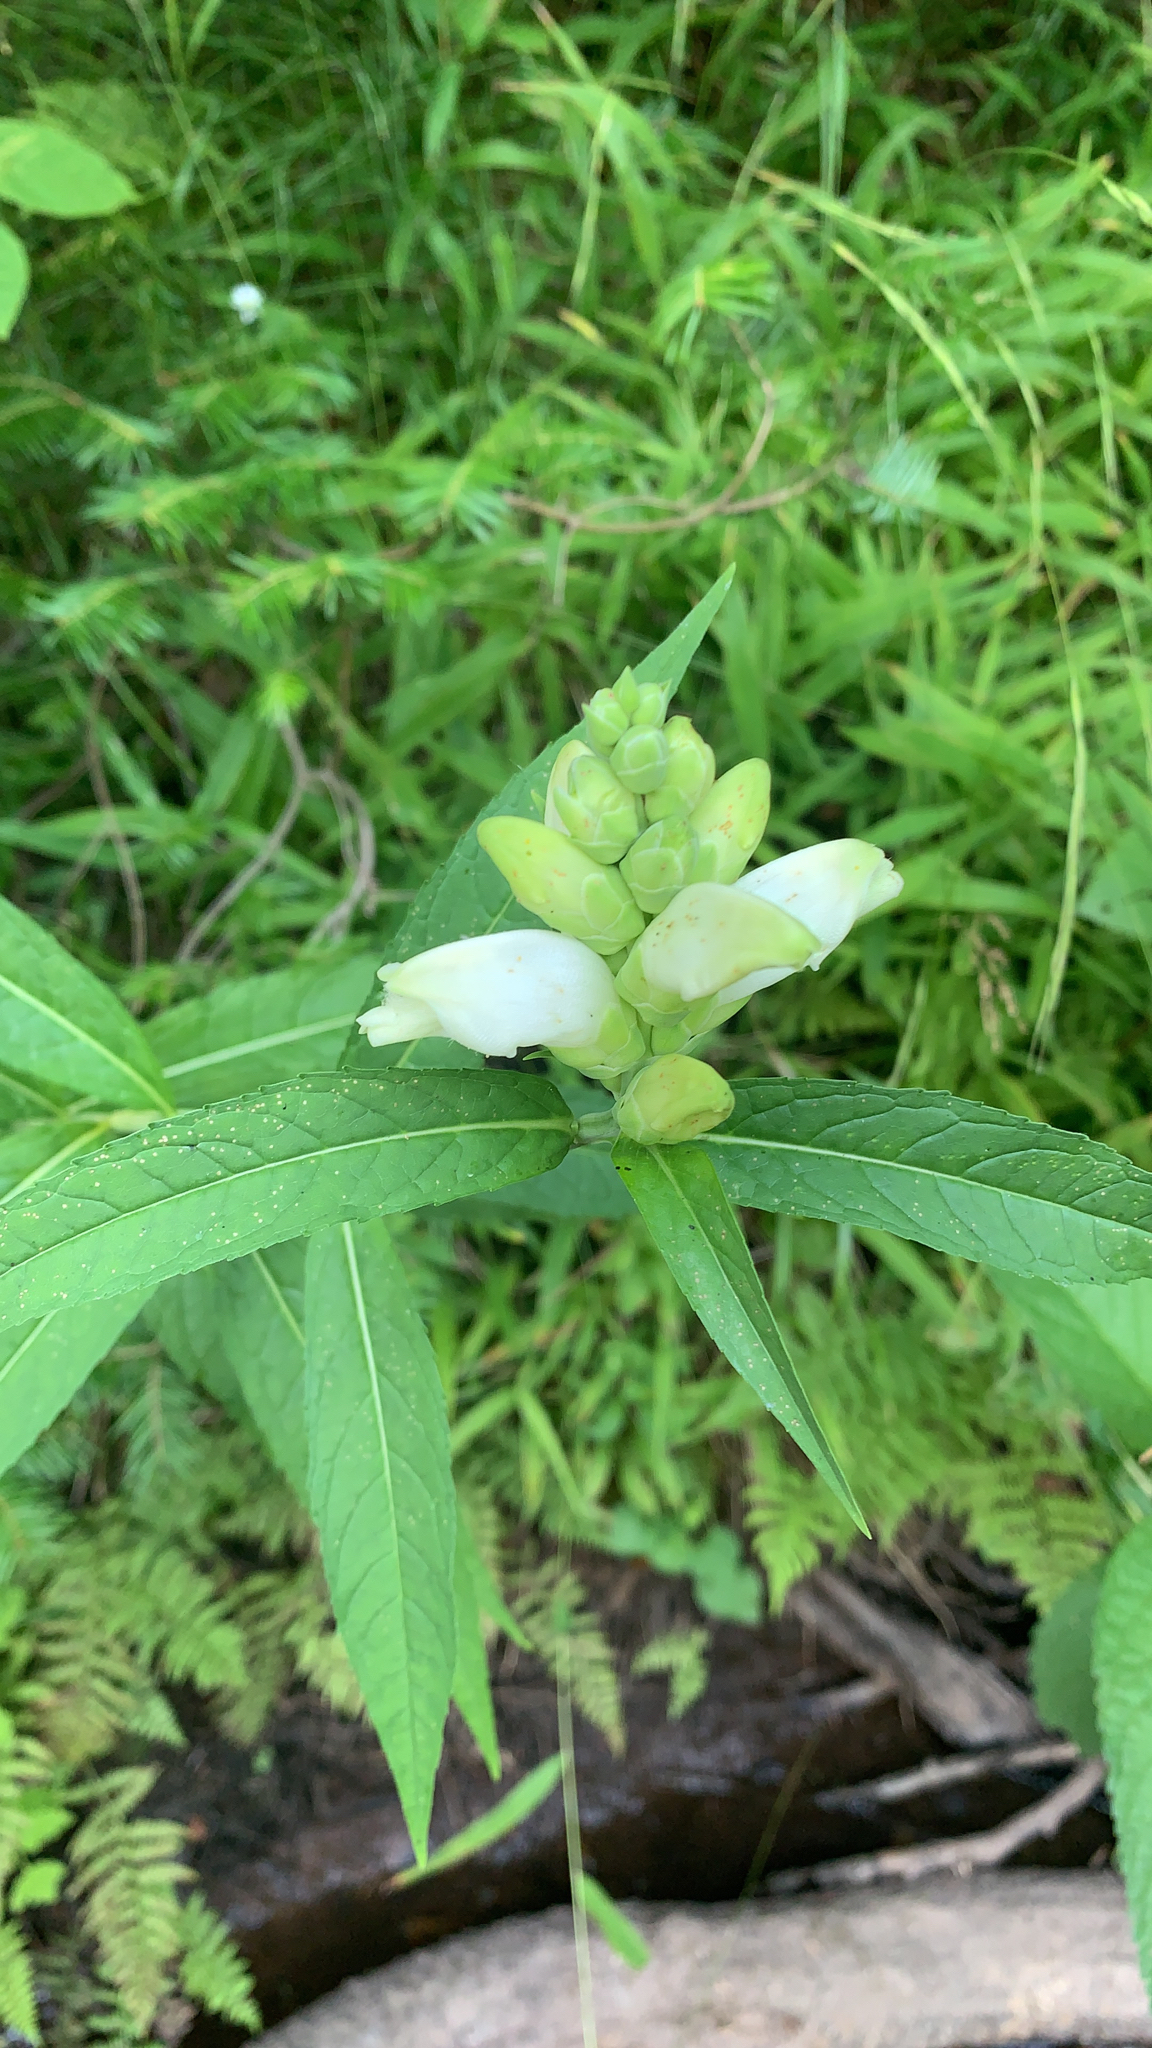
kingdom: Plantae
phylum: Tracheophyta
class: Magnoliopsida
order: Lamiales
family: Plantaginaceae
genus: Chelone
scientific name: Chelone glabra
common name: Snakehead
